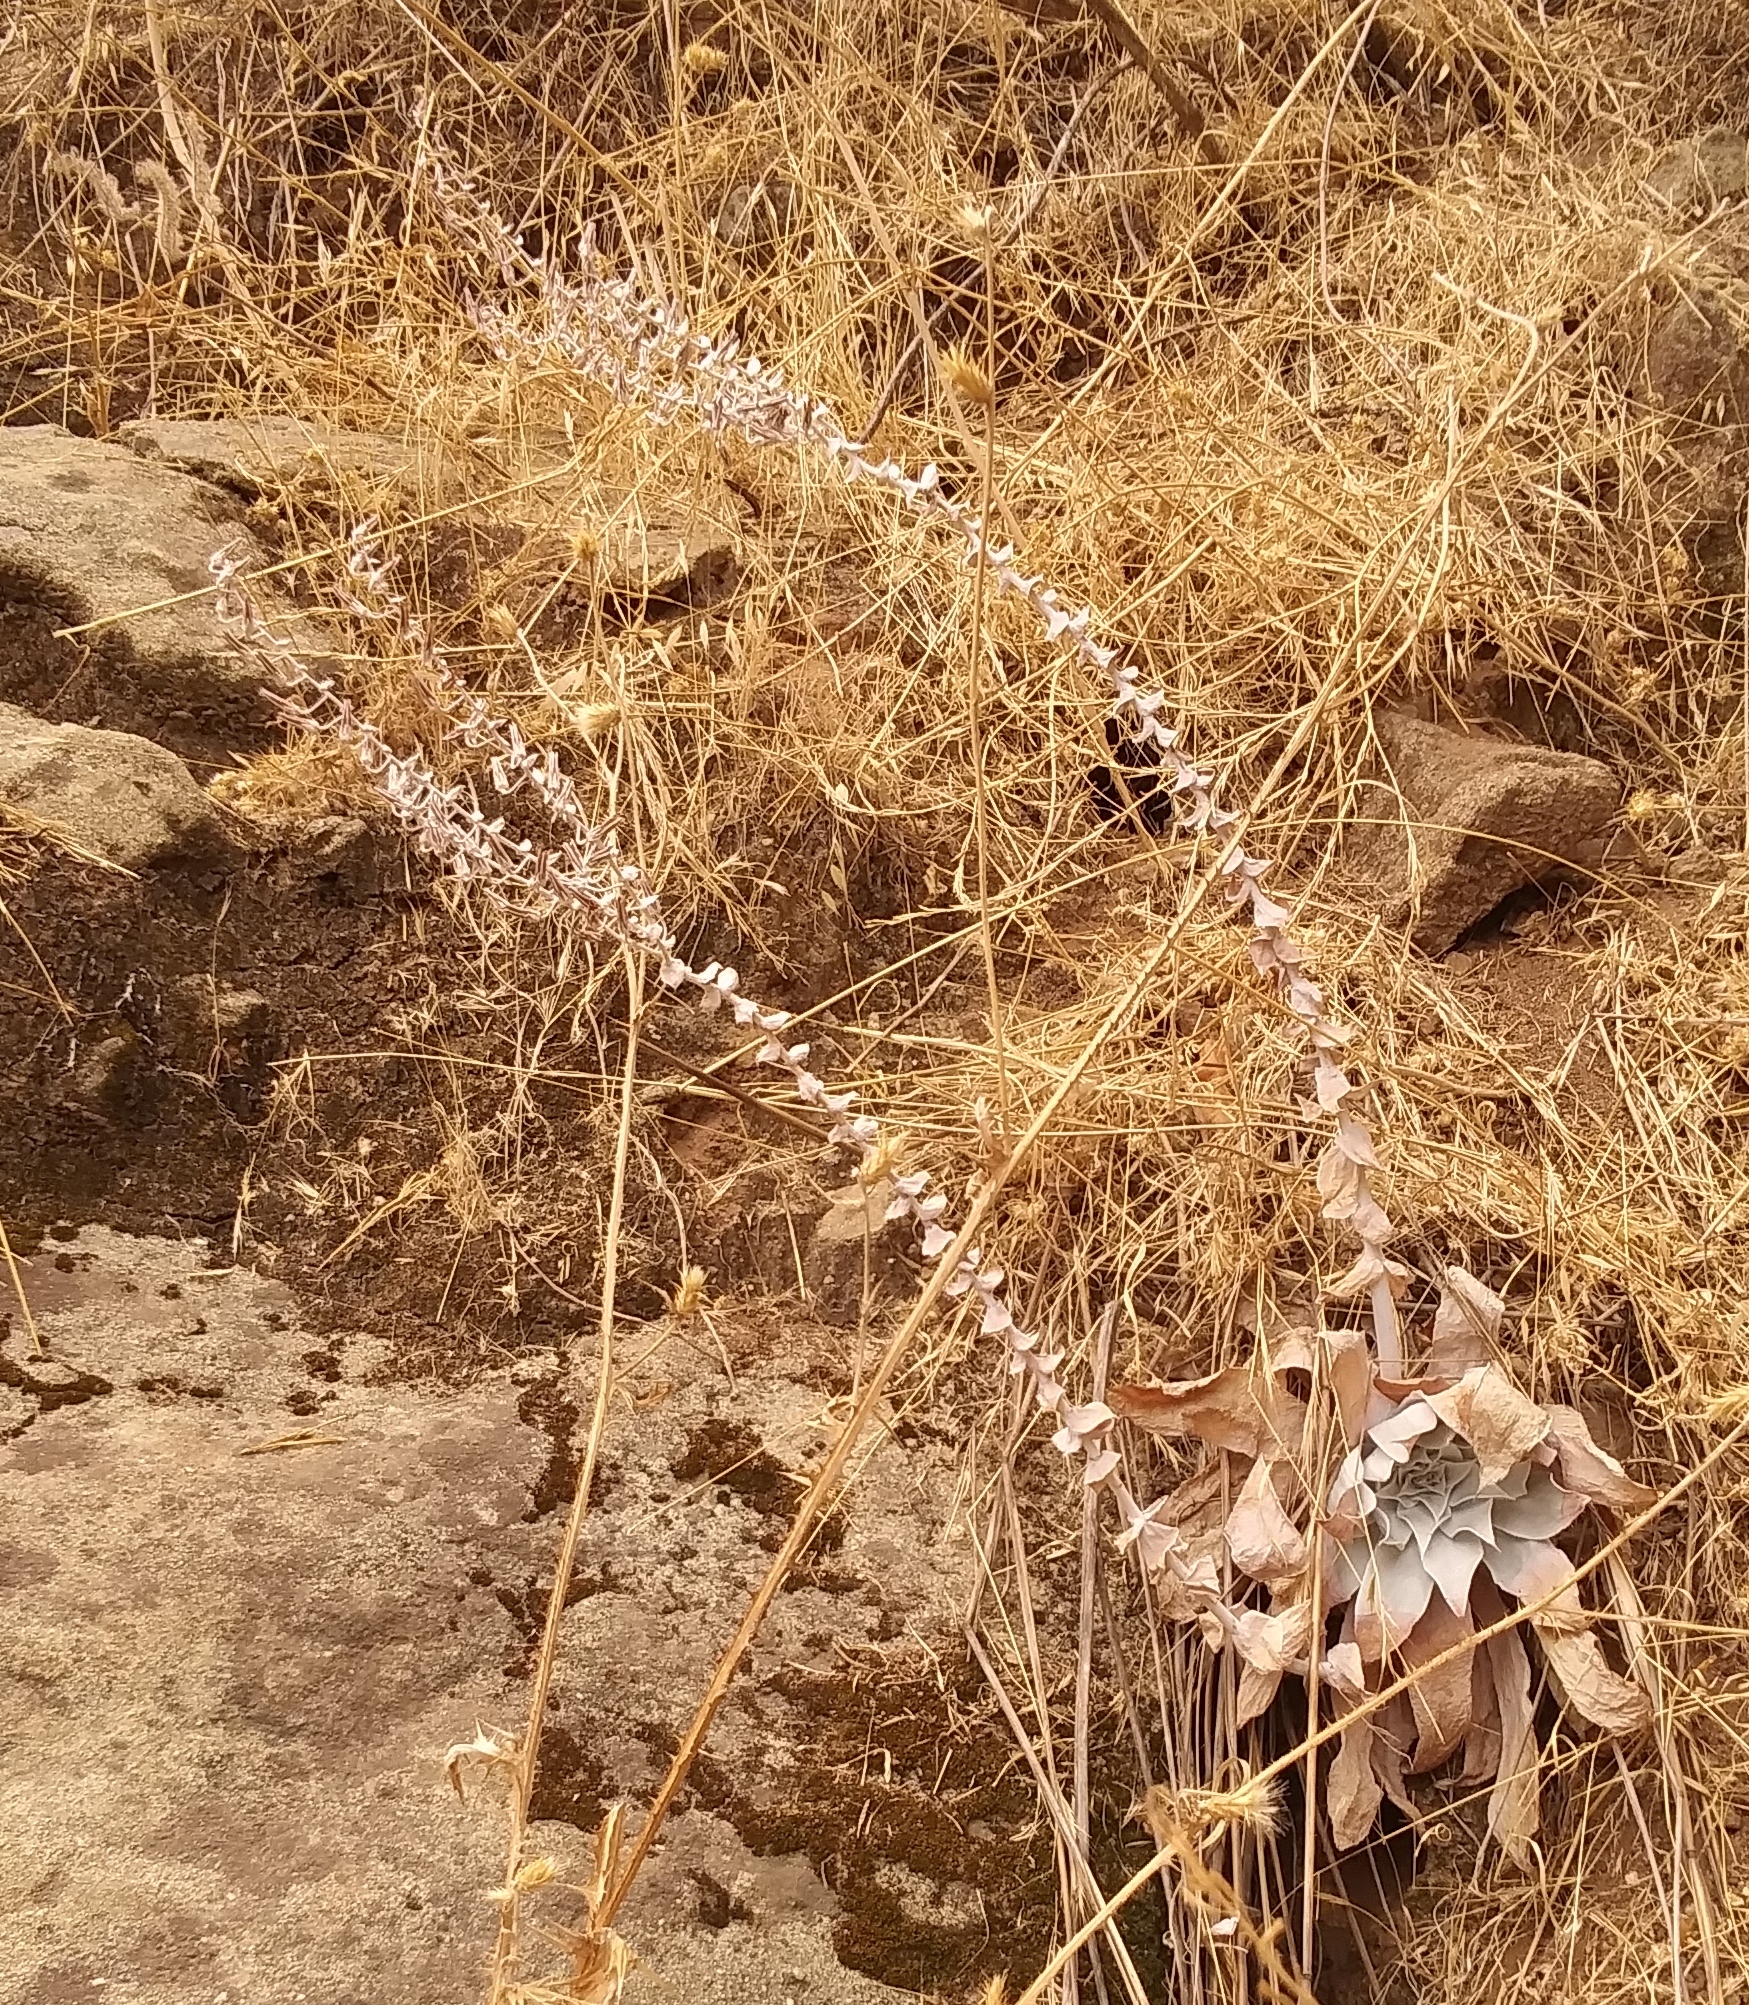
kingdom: Plantae
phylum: Tracheophyta
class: Magnoliopsida
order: Saxifragales
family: Crassulaceae
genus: Dudleya
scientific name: Dudleya pulverulenta
